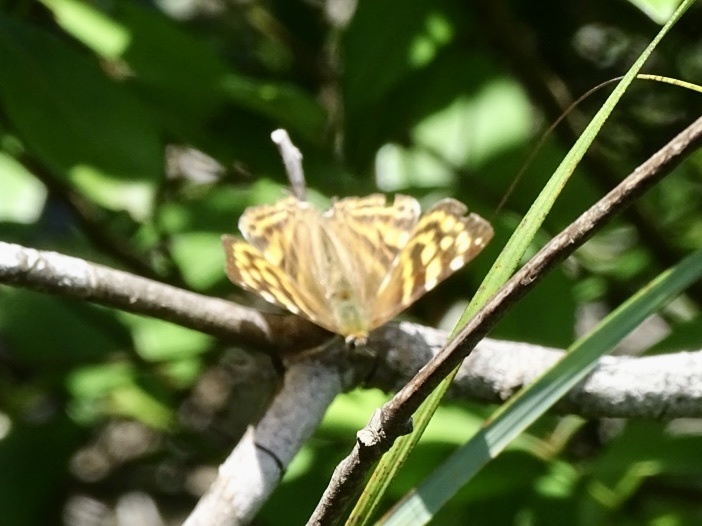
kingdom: Animalia
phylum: Arthropoda
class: Insecta
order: Lepidoptera
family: Lycaenidae
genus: Dodona
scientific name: Dodona egeon
